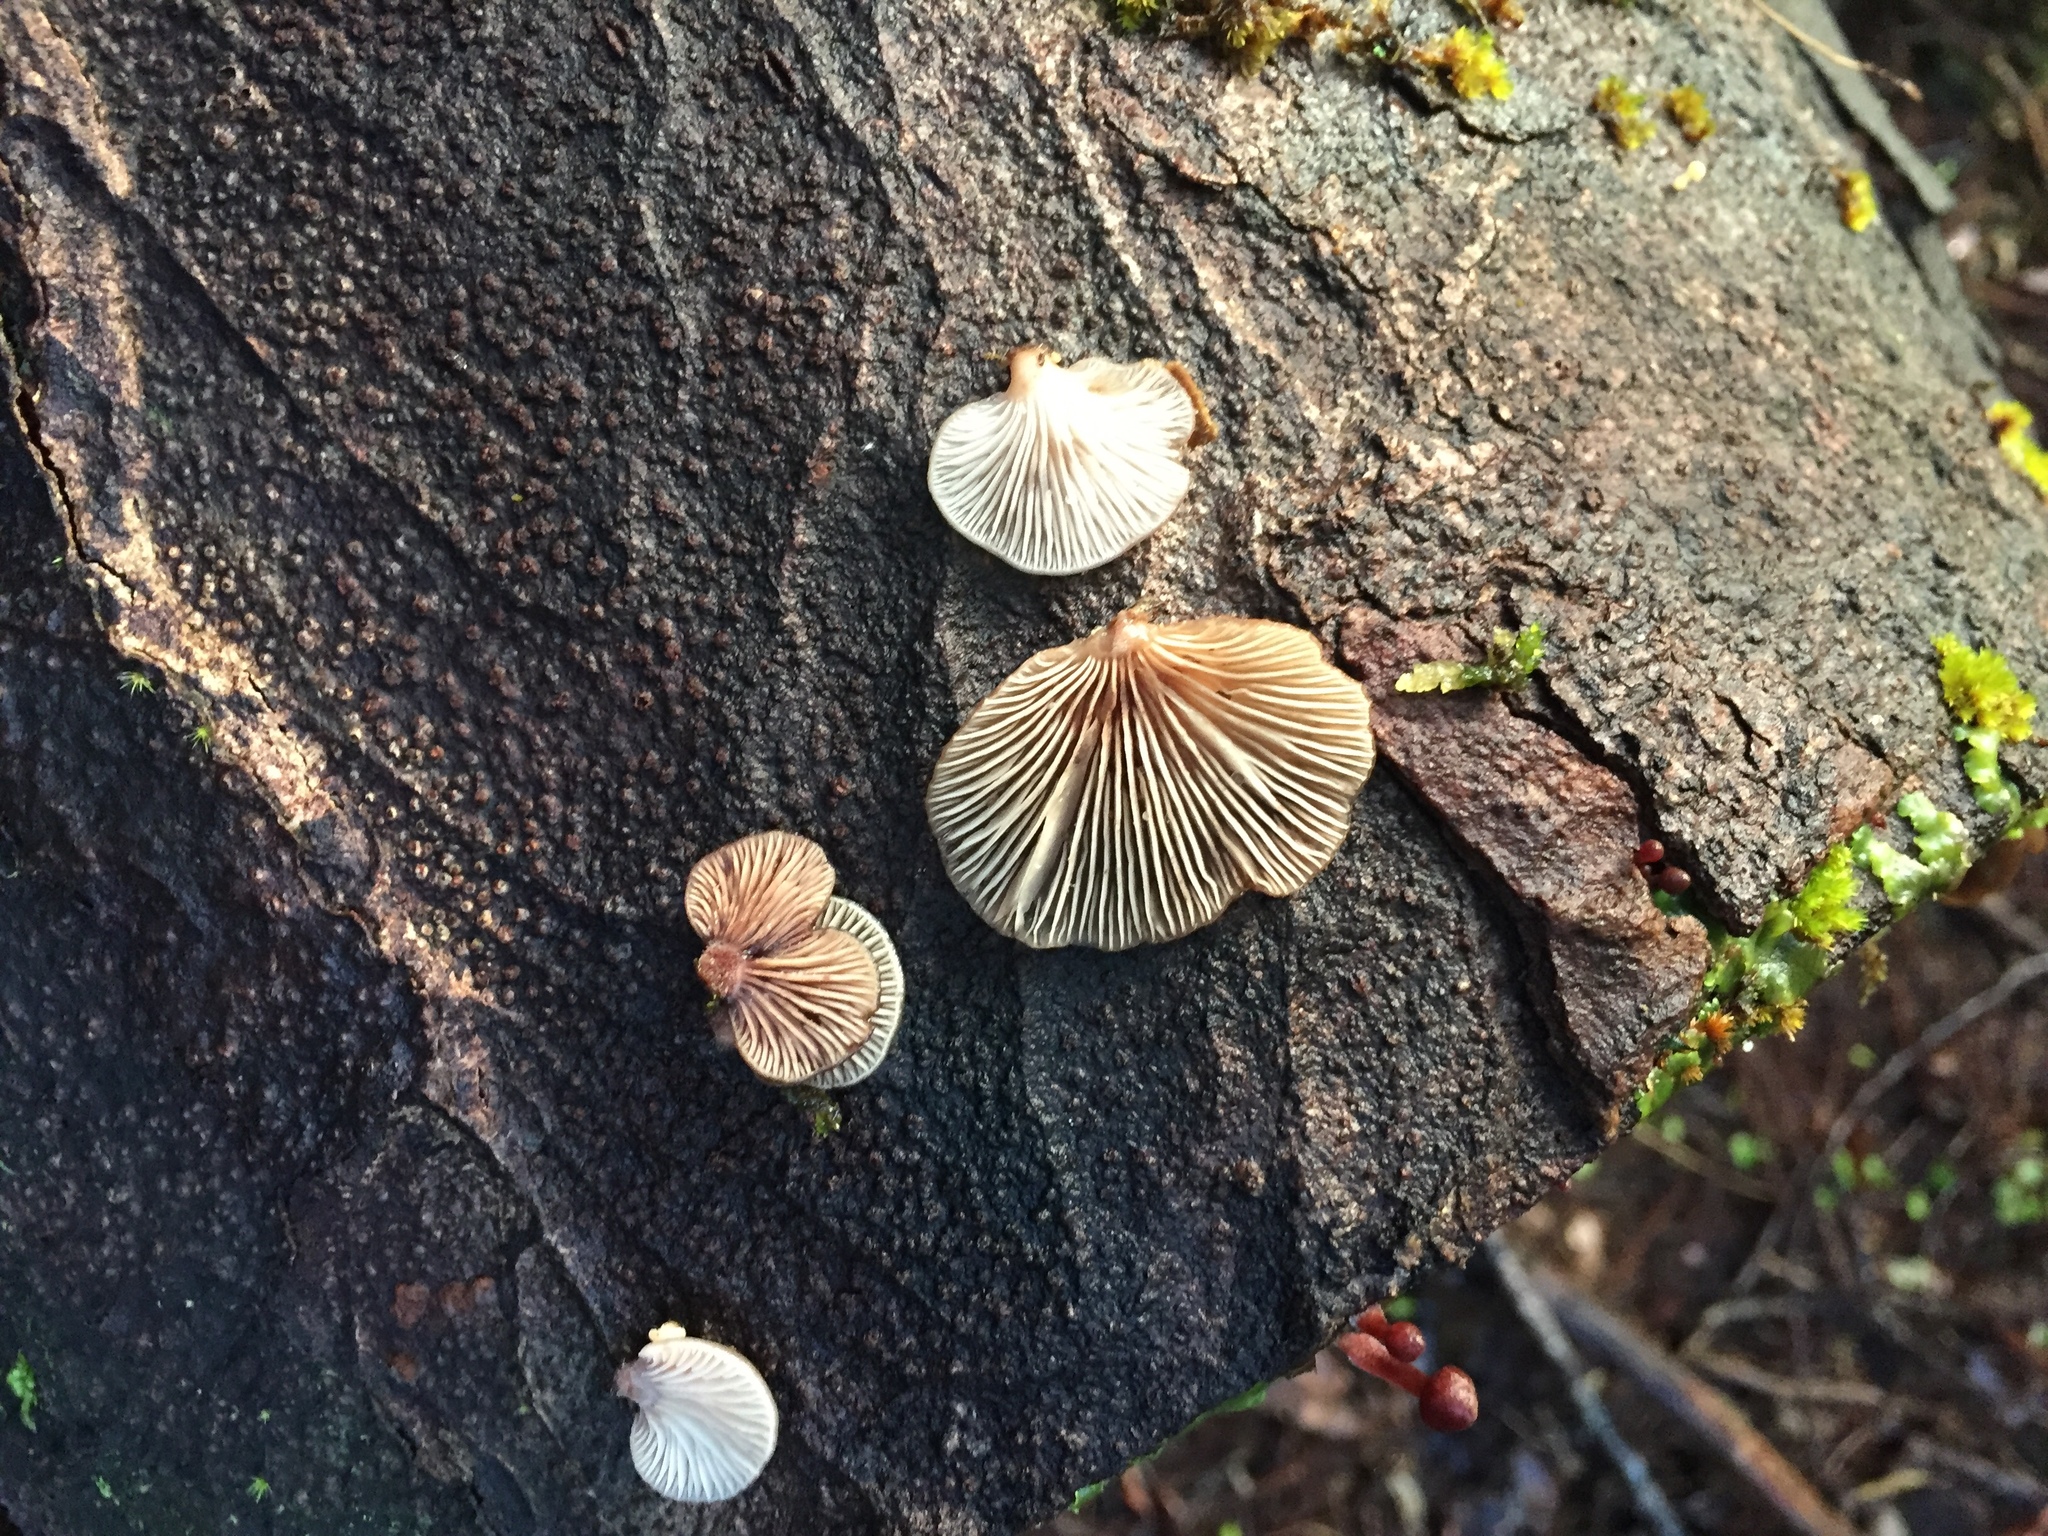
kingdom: Fungi
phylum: Basidiomycota
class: Agaricomycetes
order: Agaricales
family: Mycenaceae
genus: Panellus
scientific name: Panellus longinquus
